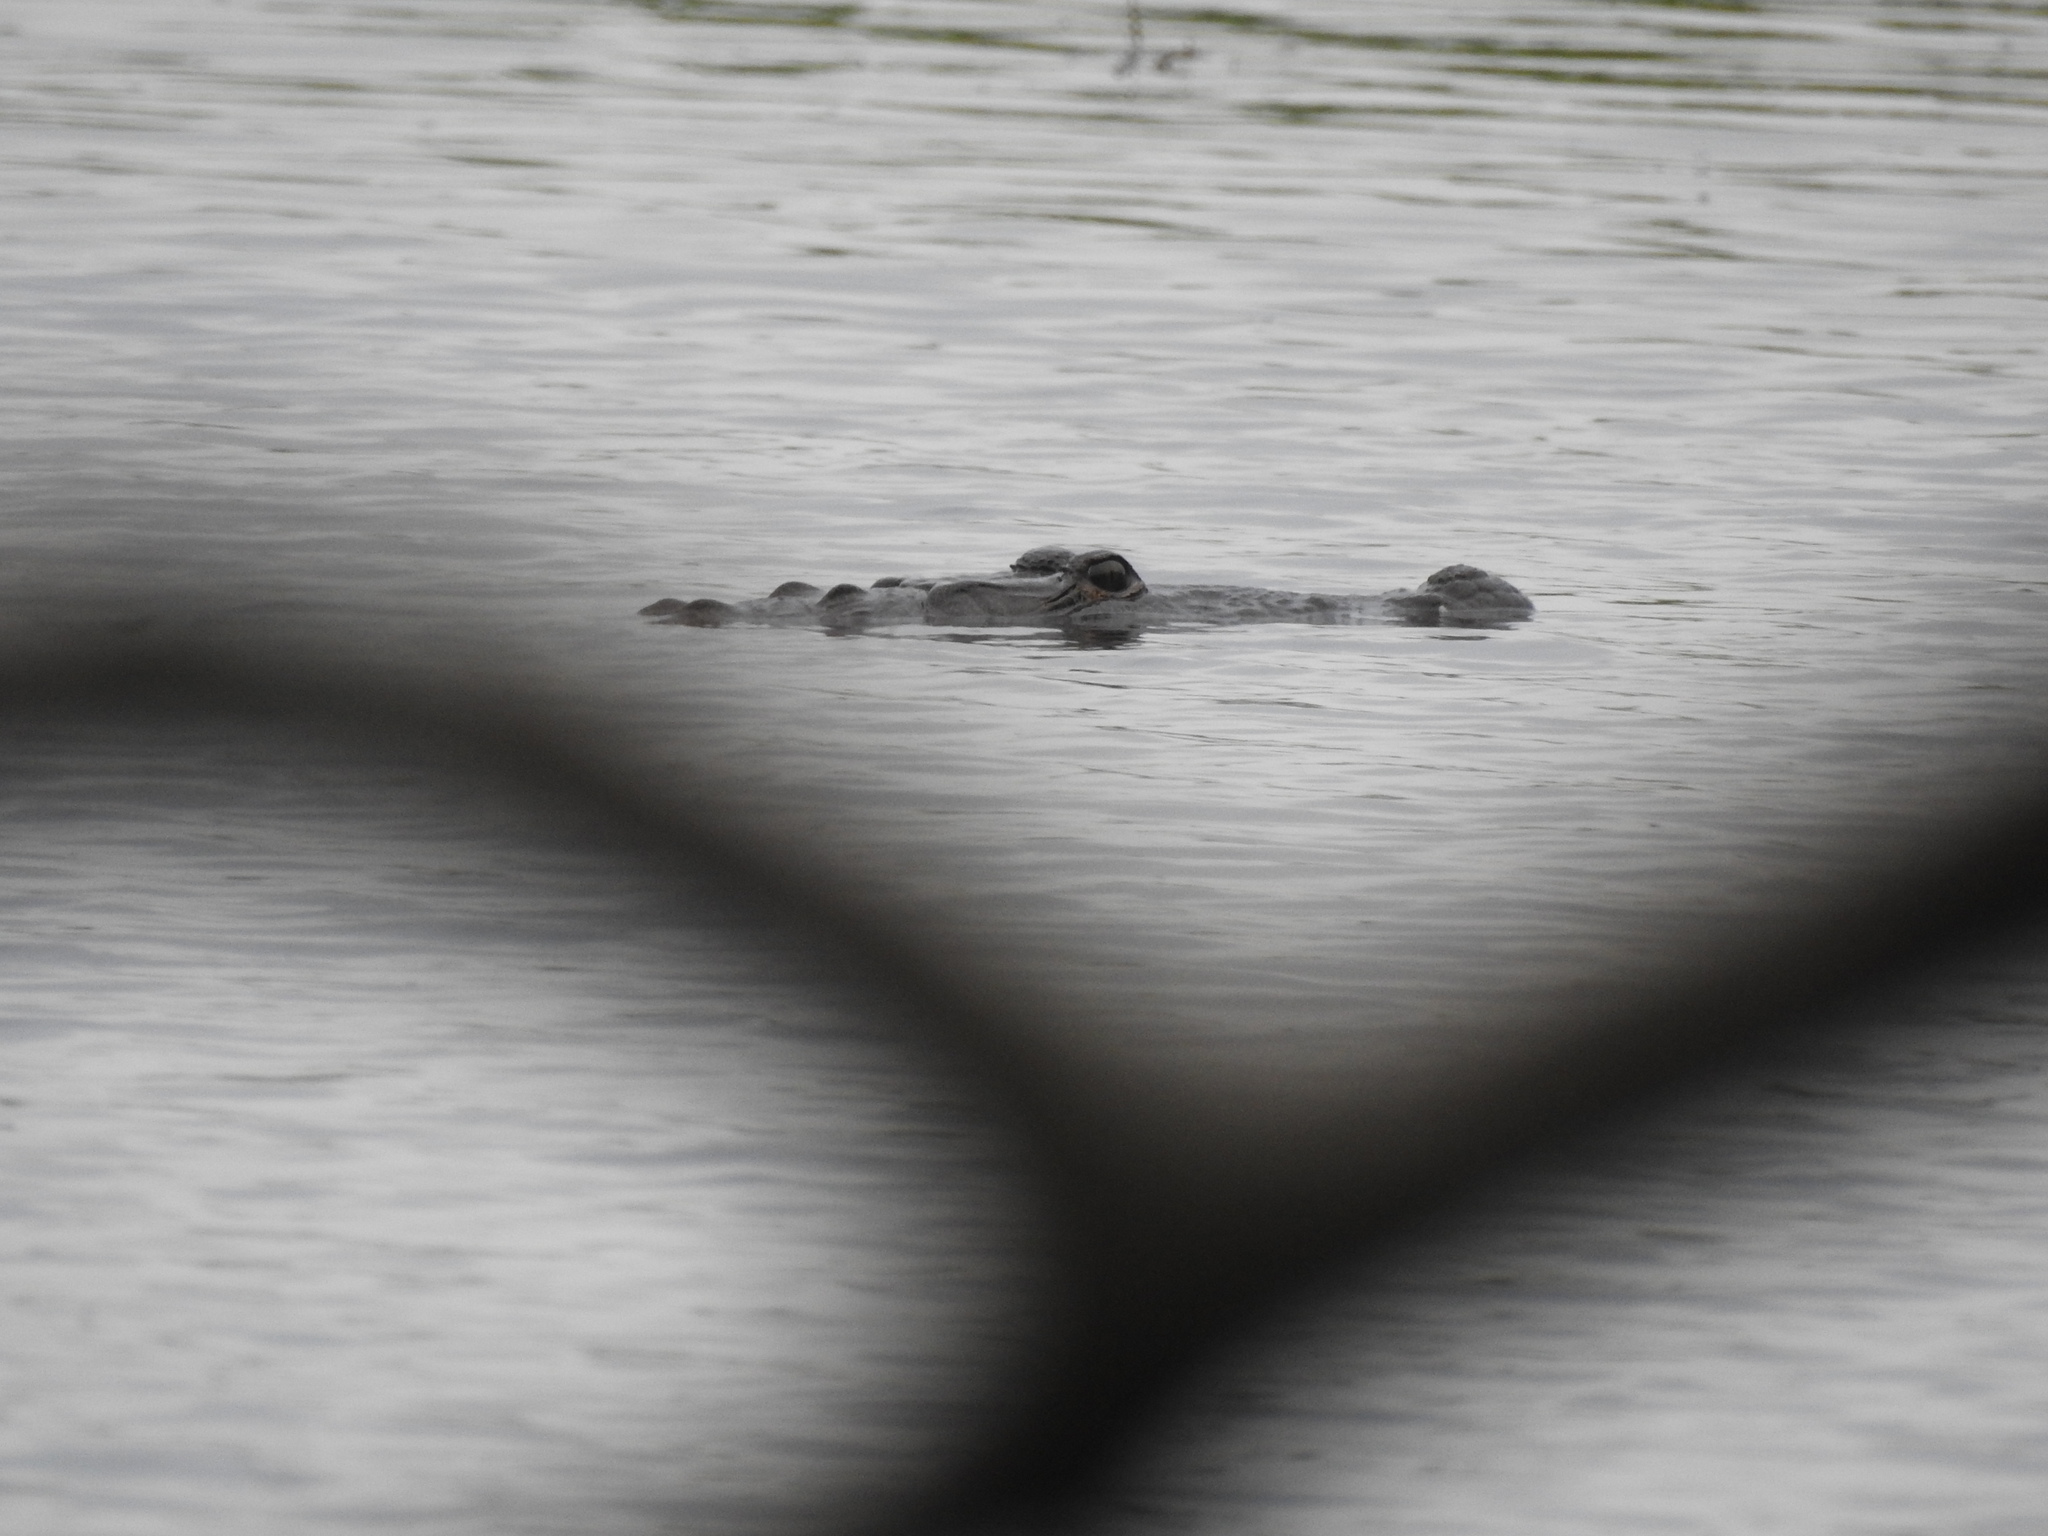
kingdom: Animalia
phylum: Chordata
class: Crocodylia
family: Crocodylidae
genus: Crocodylus
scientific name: Crocodylus moreletii
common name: Morelet's crocodile
